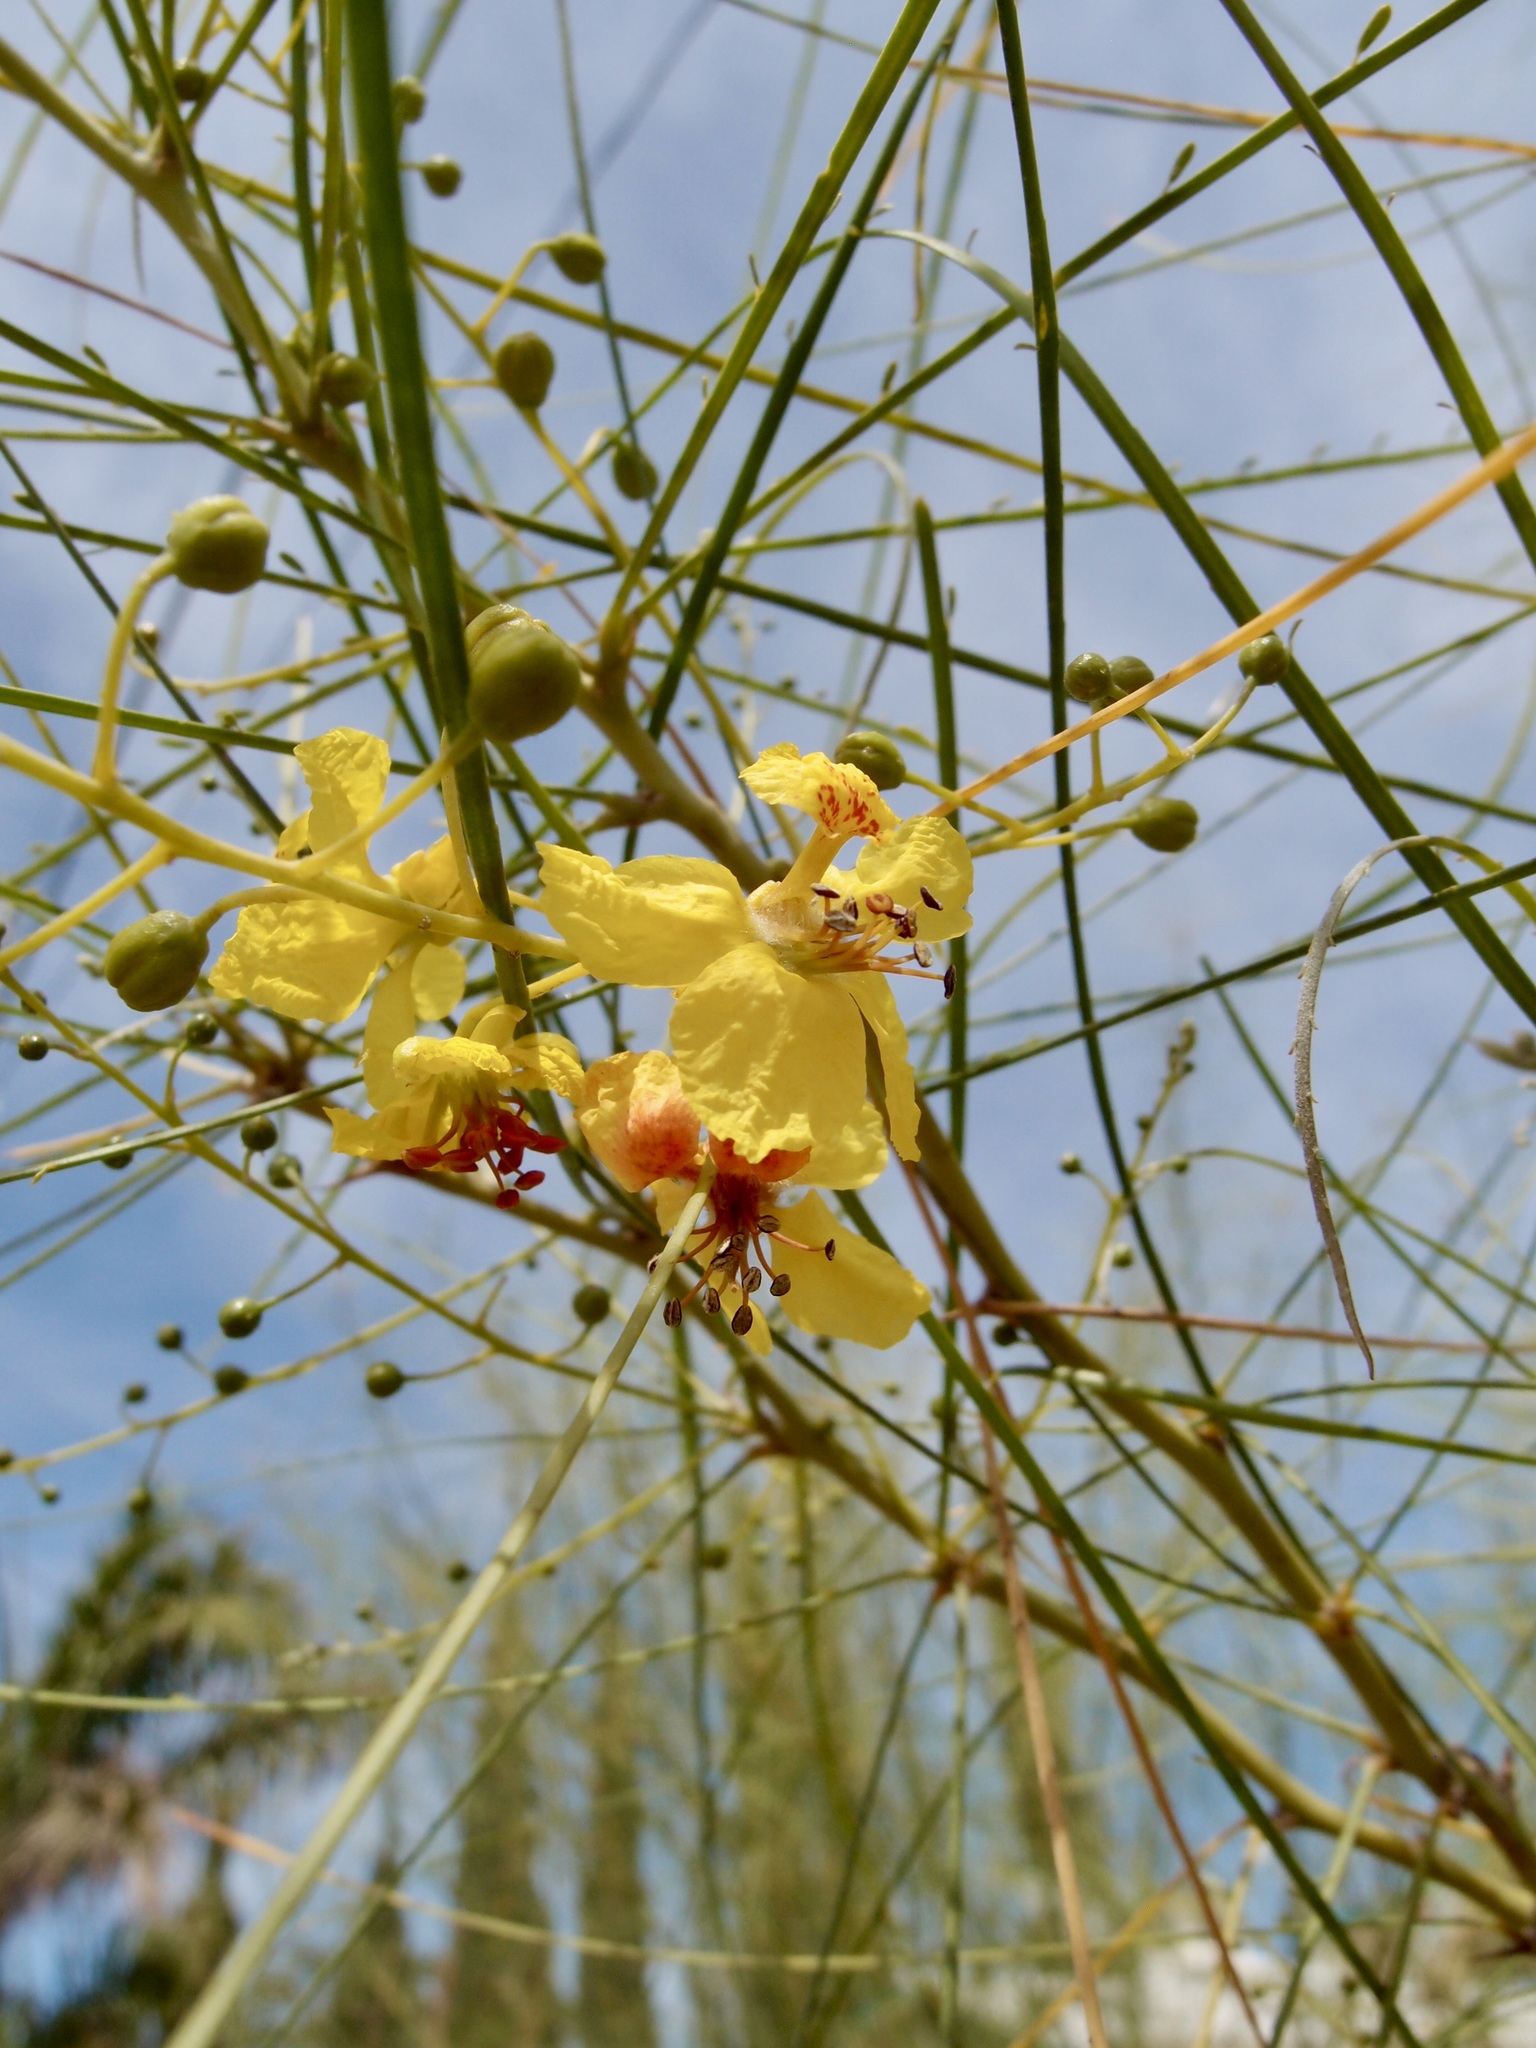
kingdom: Plantae
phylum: Tracheophyta
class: Magnoliopsida
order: Fabales
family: Fabaceae
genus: Parkinsonia
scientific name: Parkinsonia aculeata
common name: Jerusalem thorn
